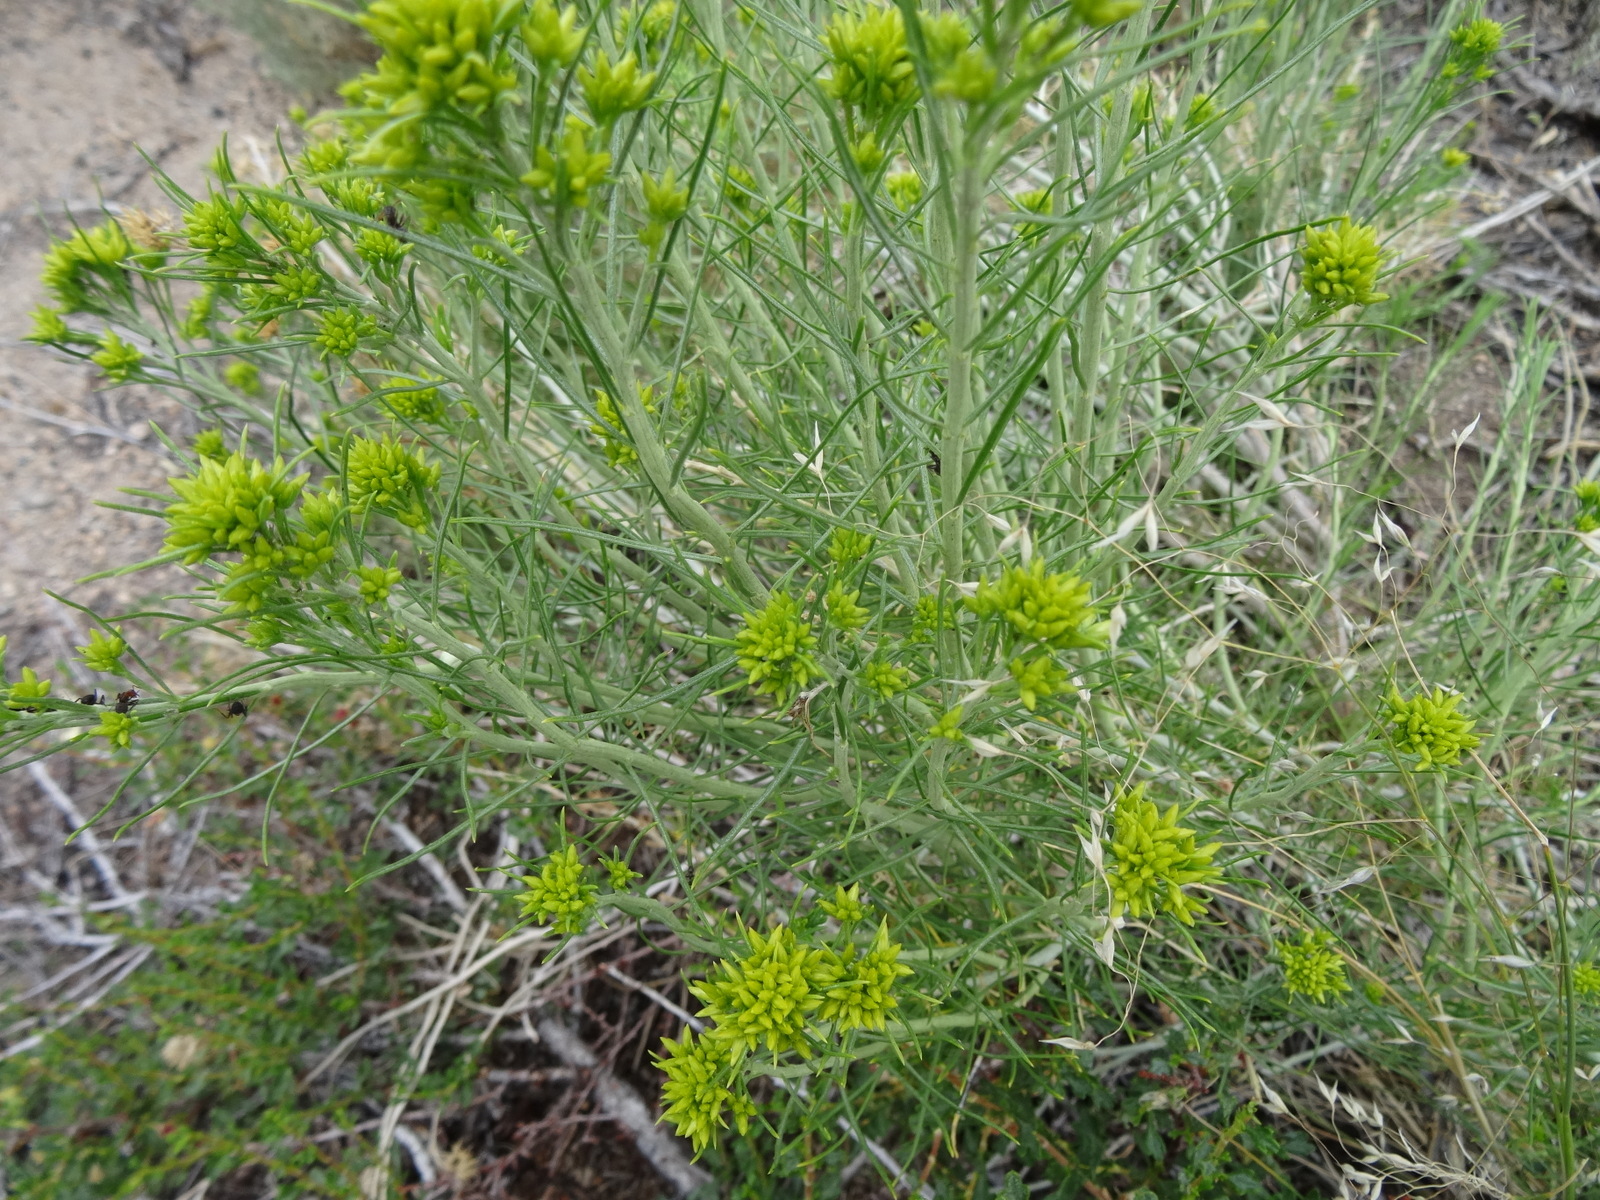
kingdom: Plantae
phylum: Tracheophyta
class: Magnoliopsida
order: Asterales
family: Asteraceae
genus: Ericameria
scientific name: Ericameria nauseosa
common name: Rubber rabbitbrush
